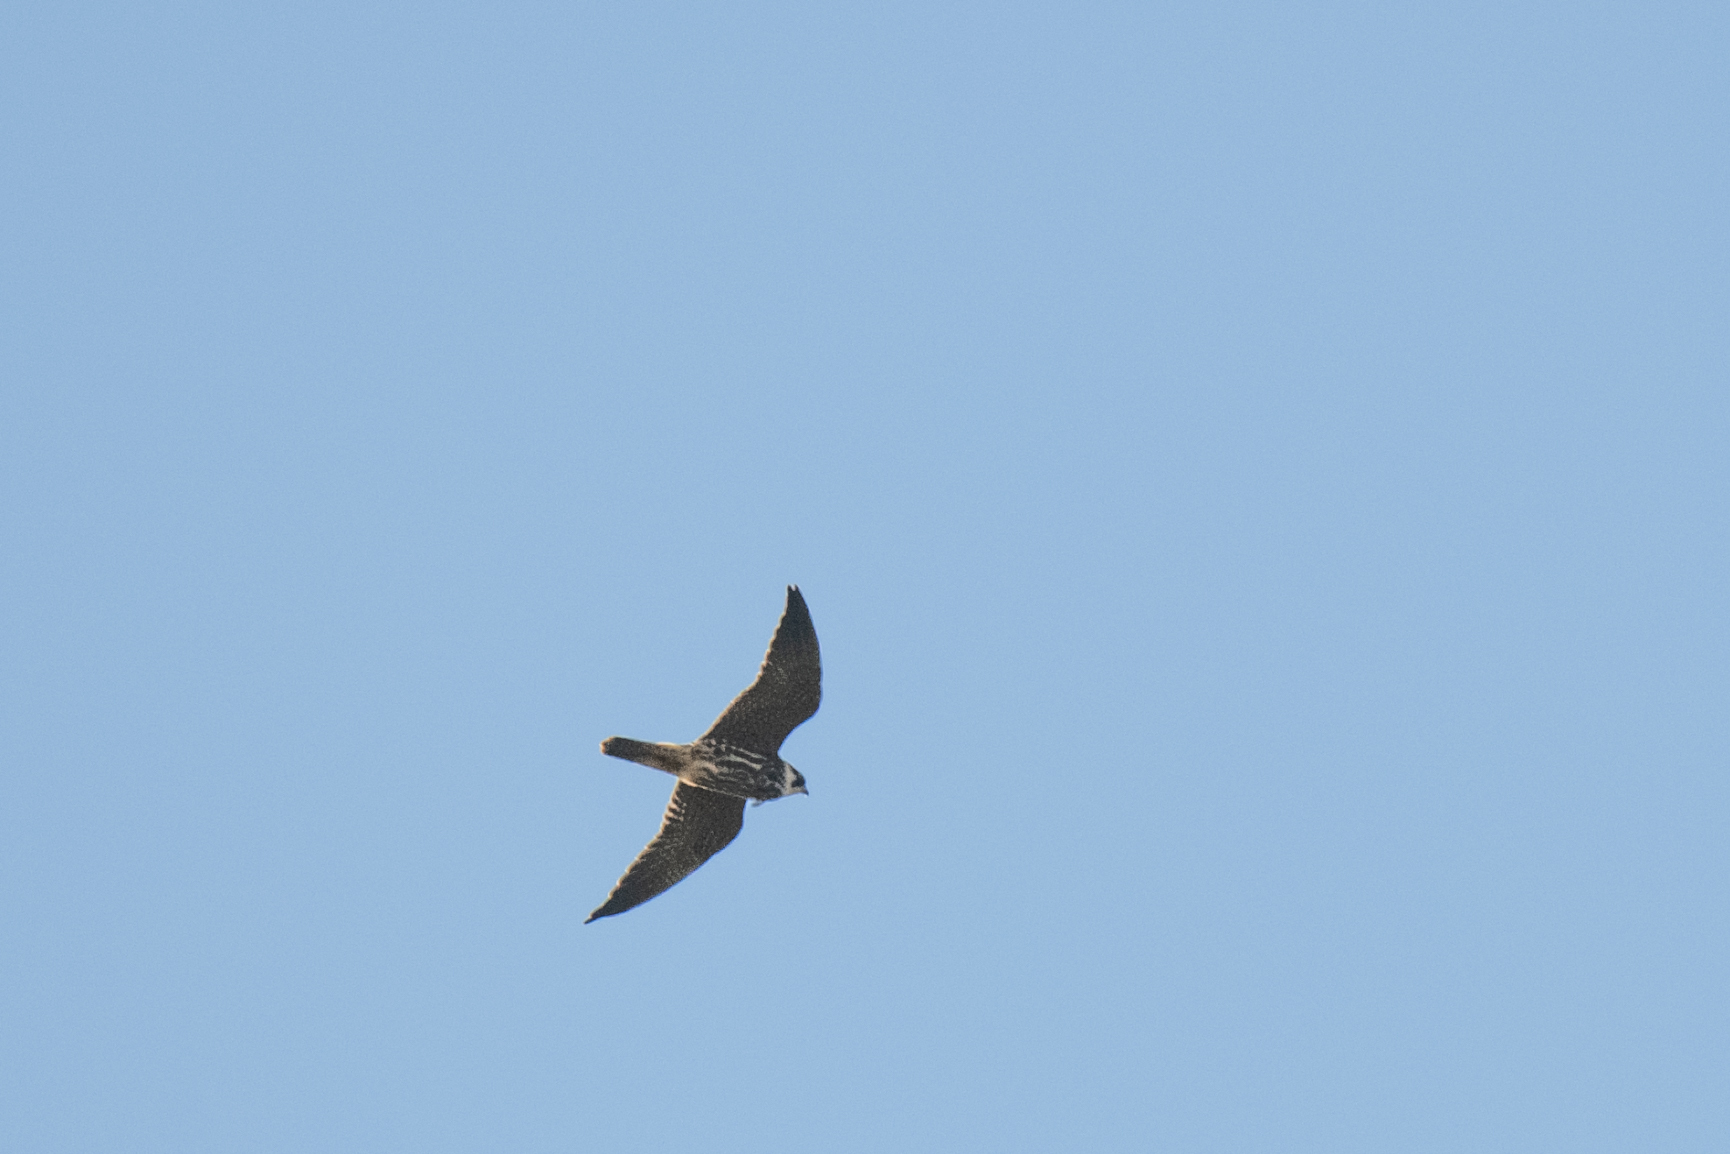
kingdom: Animalia
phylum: Chordata
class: Aves
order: Falconiformes
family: Falconidae
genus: Falco
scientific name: Falco subbuteo
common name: Eurasian hobby
